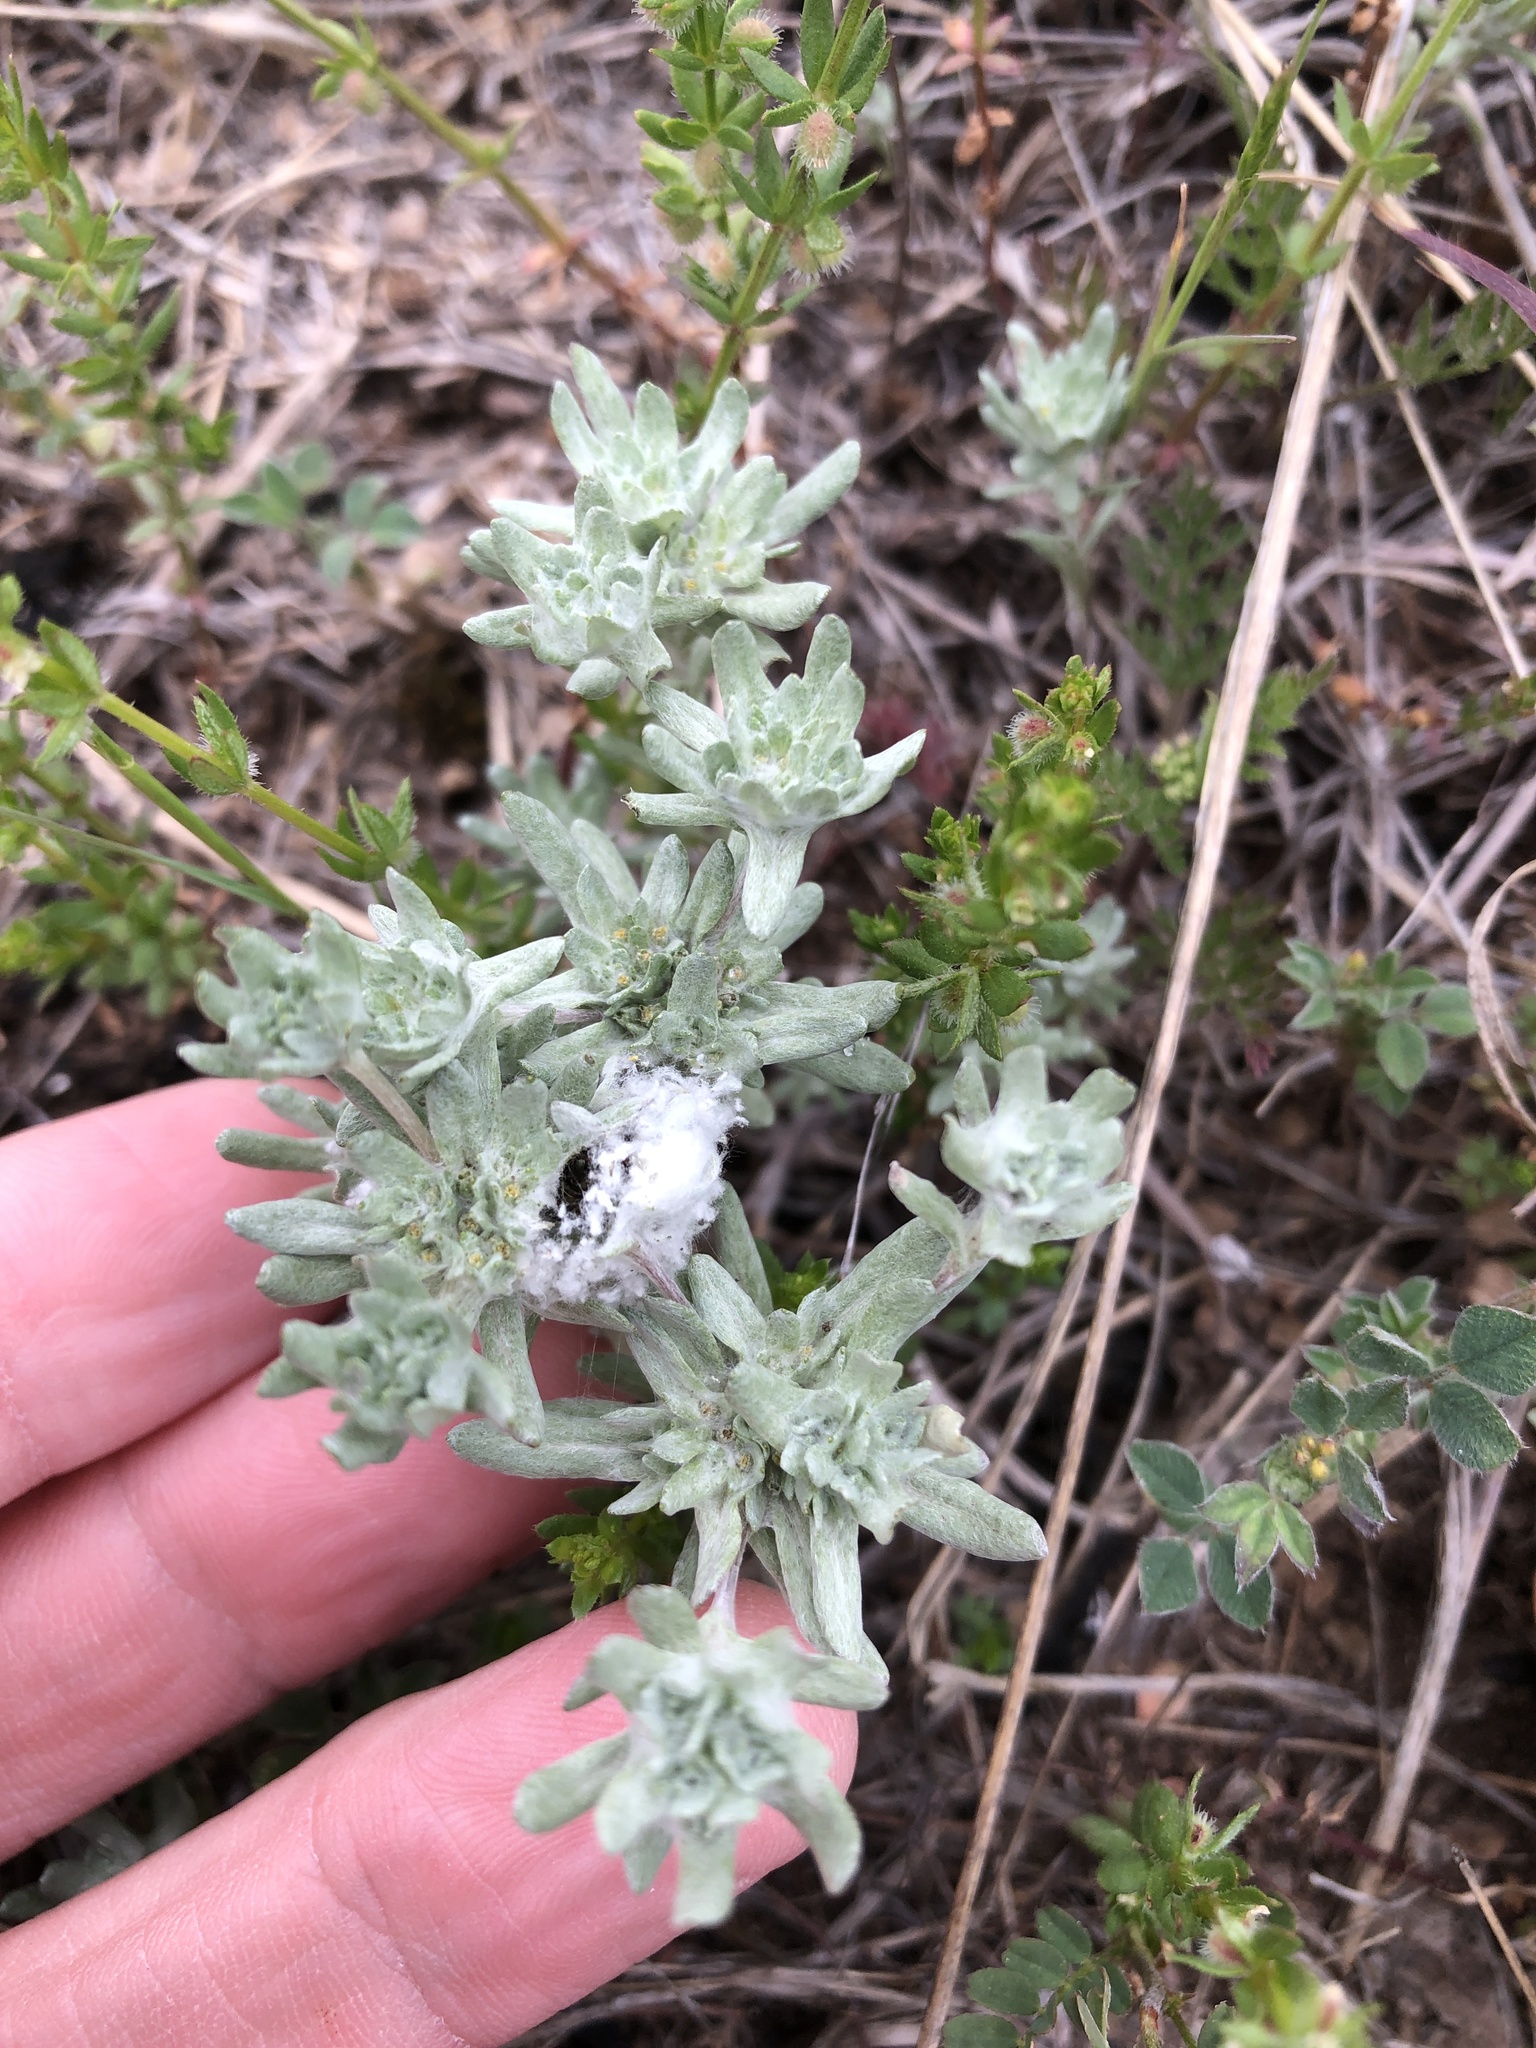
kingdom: Plantae
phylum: Tracheophyta
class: Magnoliopsida
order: Asterales
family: Asteraceae
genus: Diaperia
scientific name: Diaperia prolifera
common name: Big-head rabbit-tobacco
